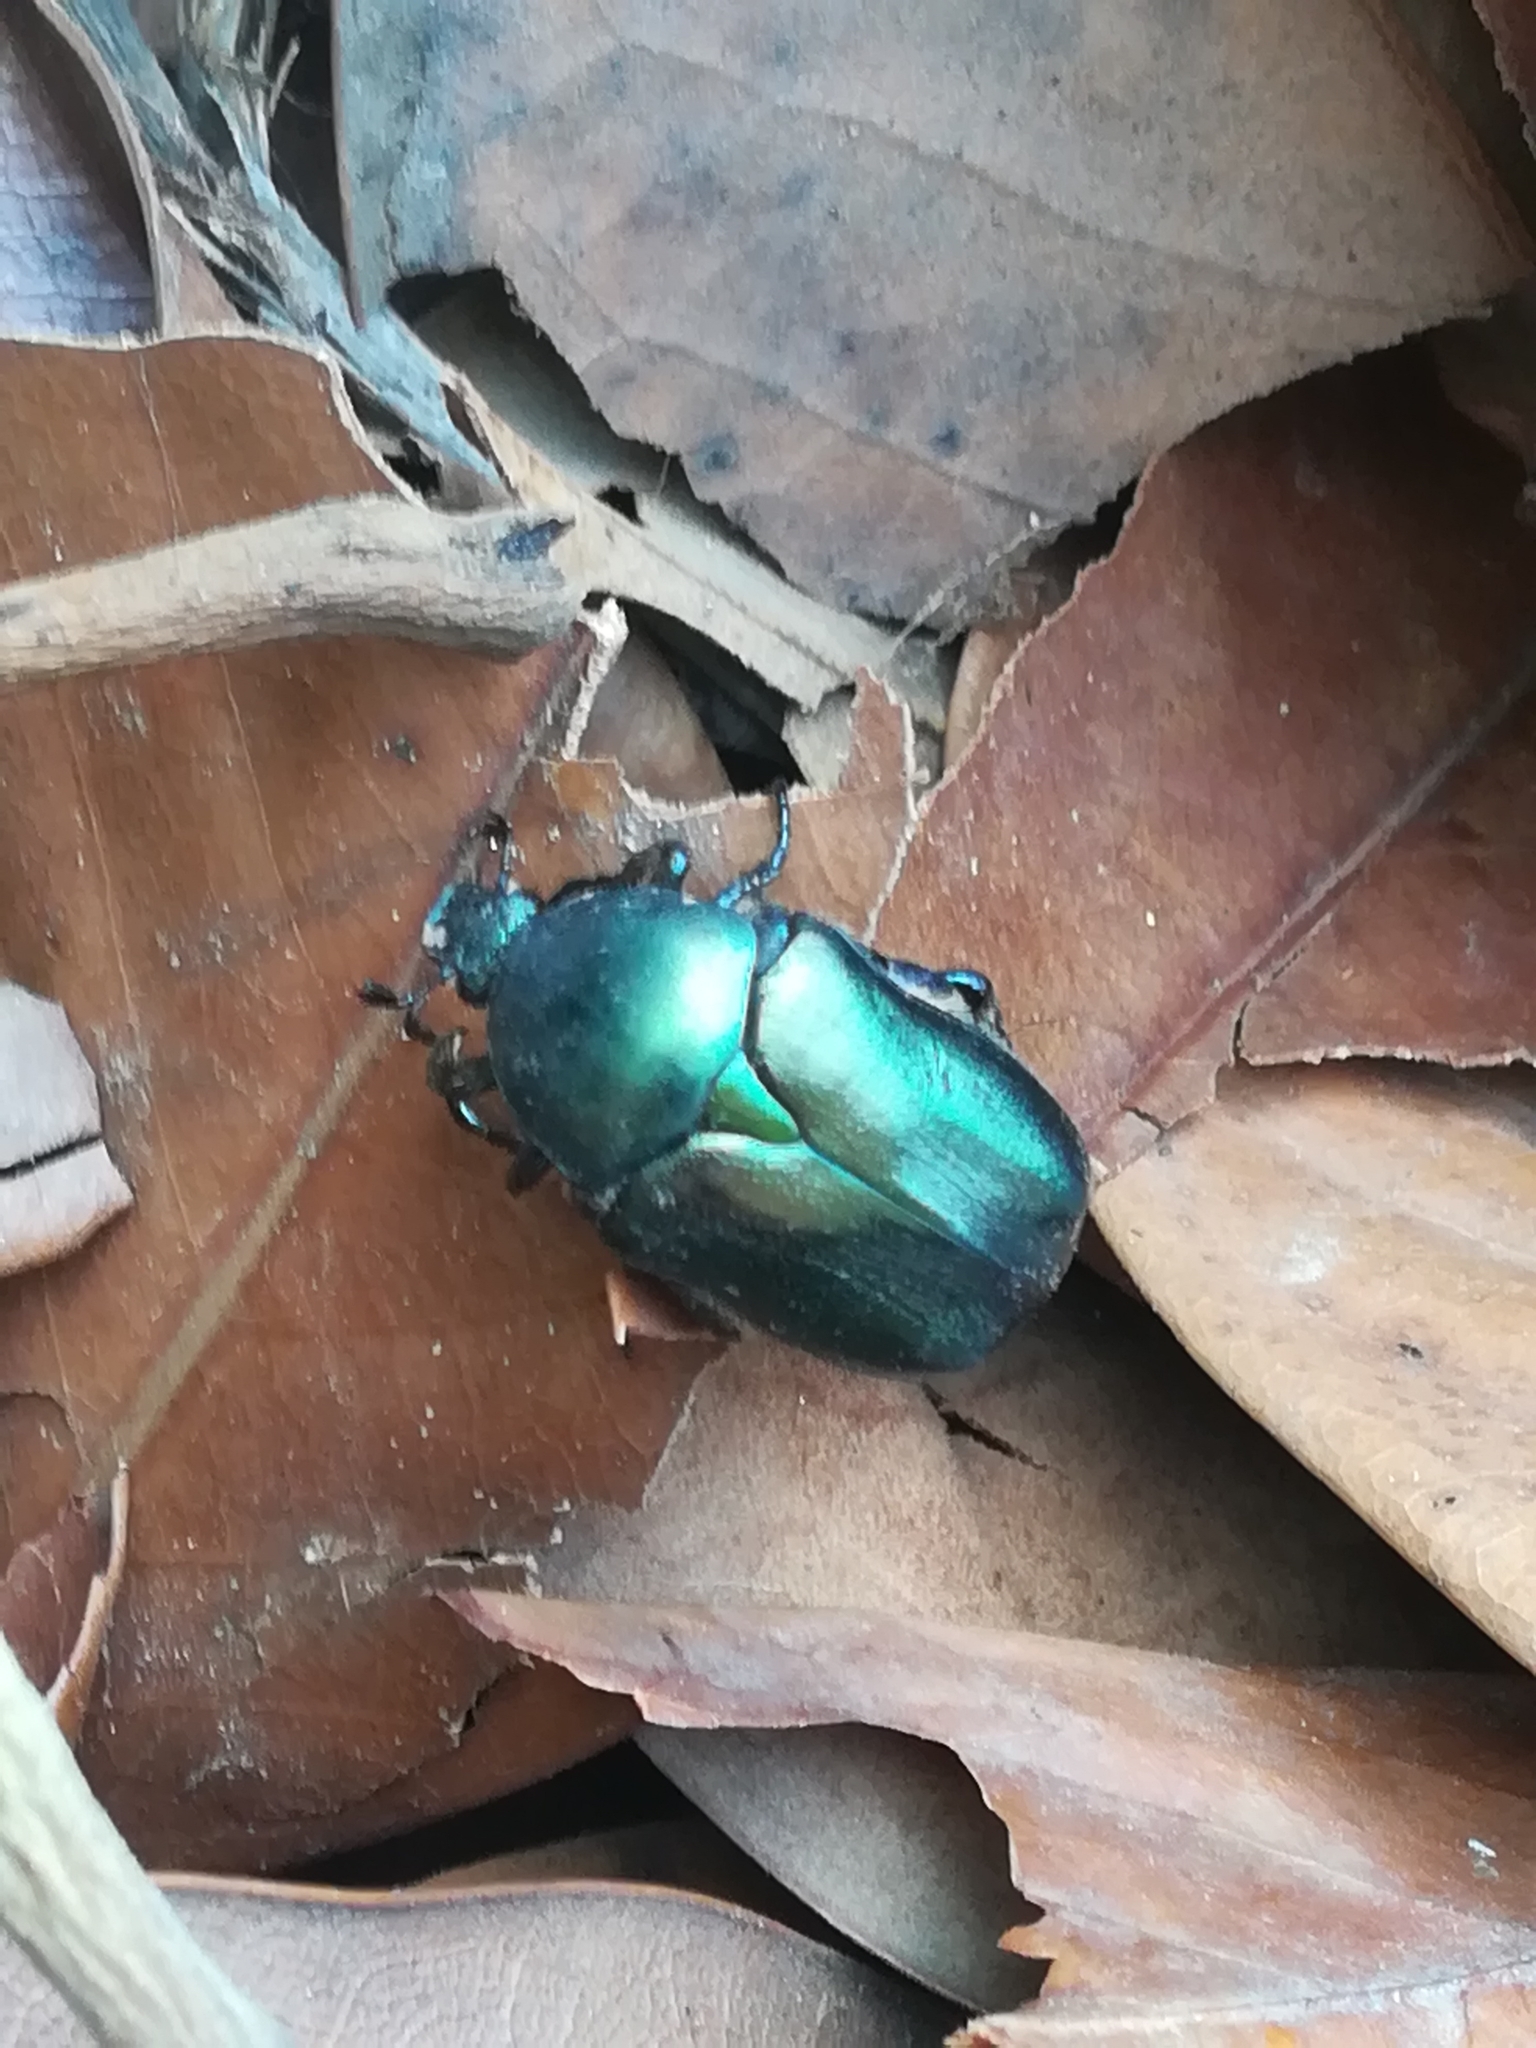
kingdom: Animalia
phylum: Arthropoda
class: Insecta
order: Coleoptera
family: Scarabaeidae
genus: Protaetia
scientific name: Protaetia angustata
